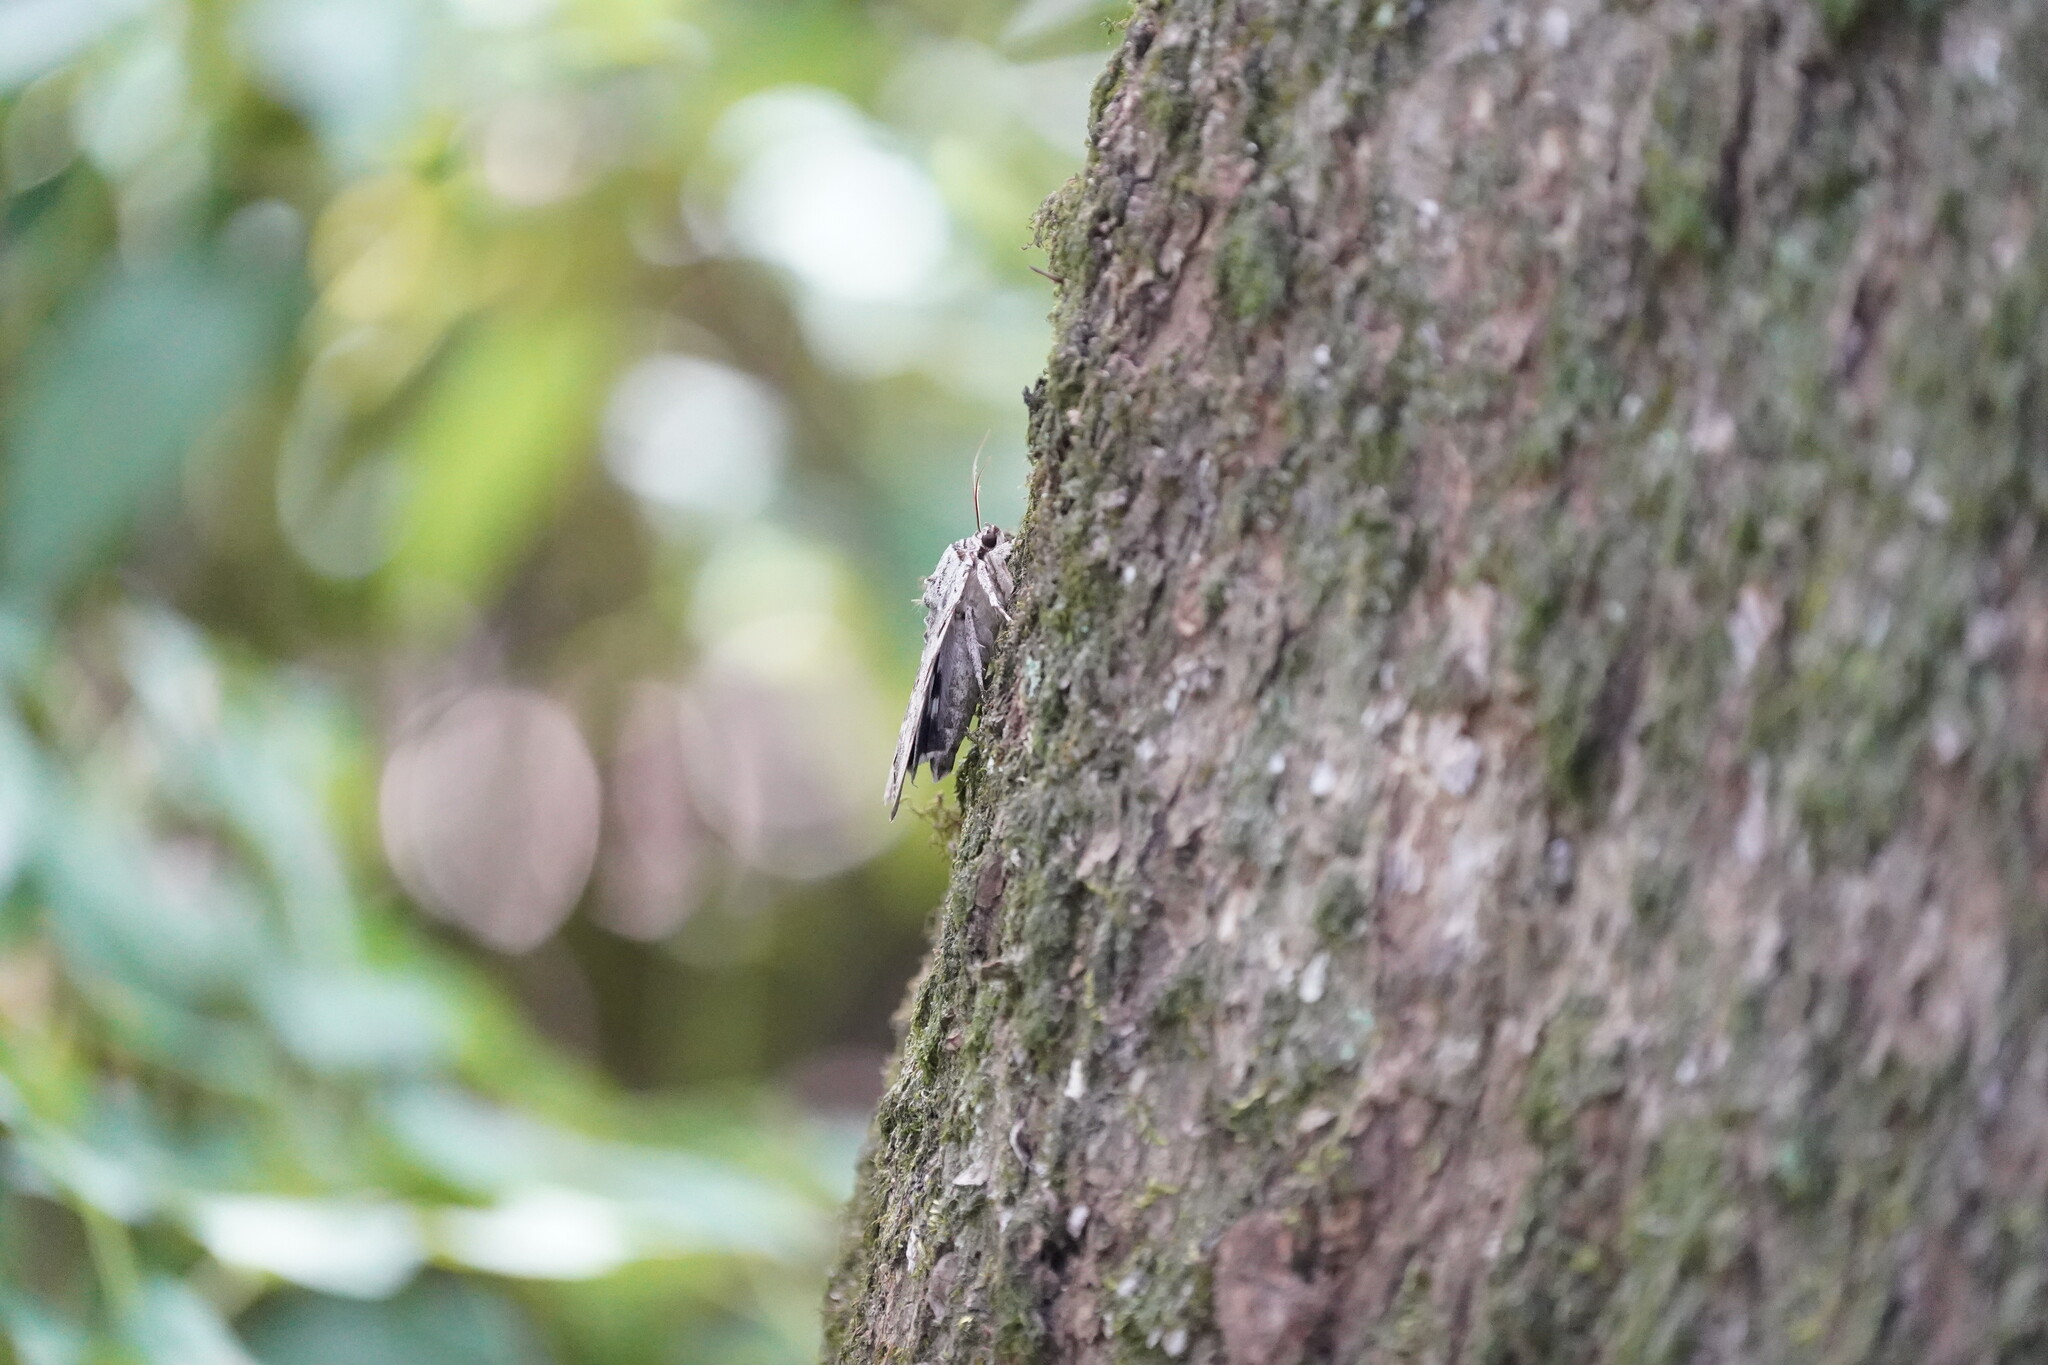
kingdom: Animalia
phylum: Arthropoda
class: Insecta
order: Lepidoptera
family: Erebidae
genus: Catocala
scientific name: Catocala maestosa
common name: Sad underwing
